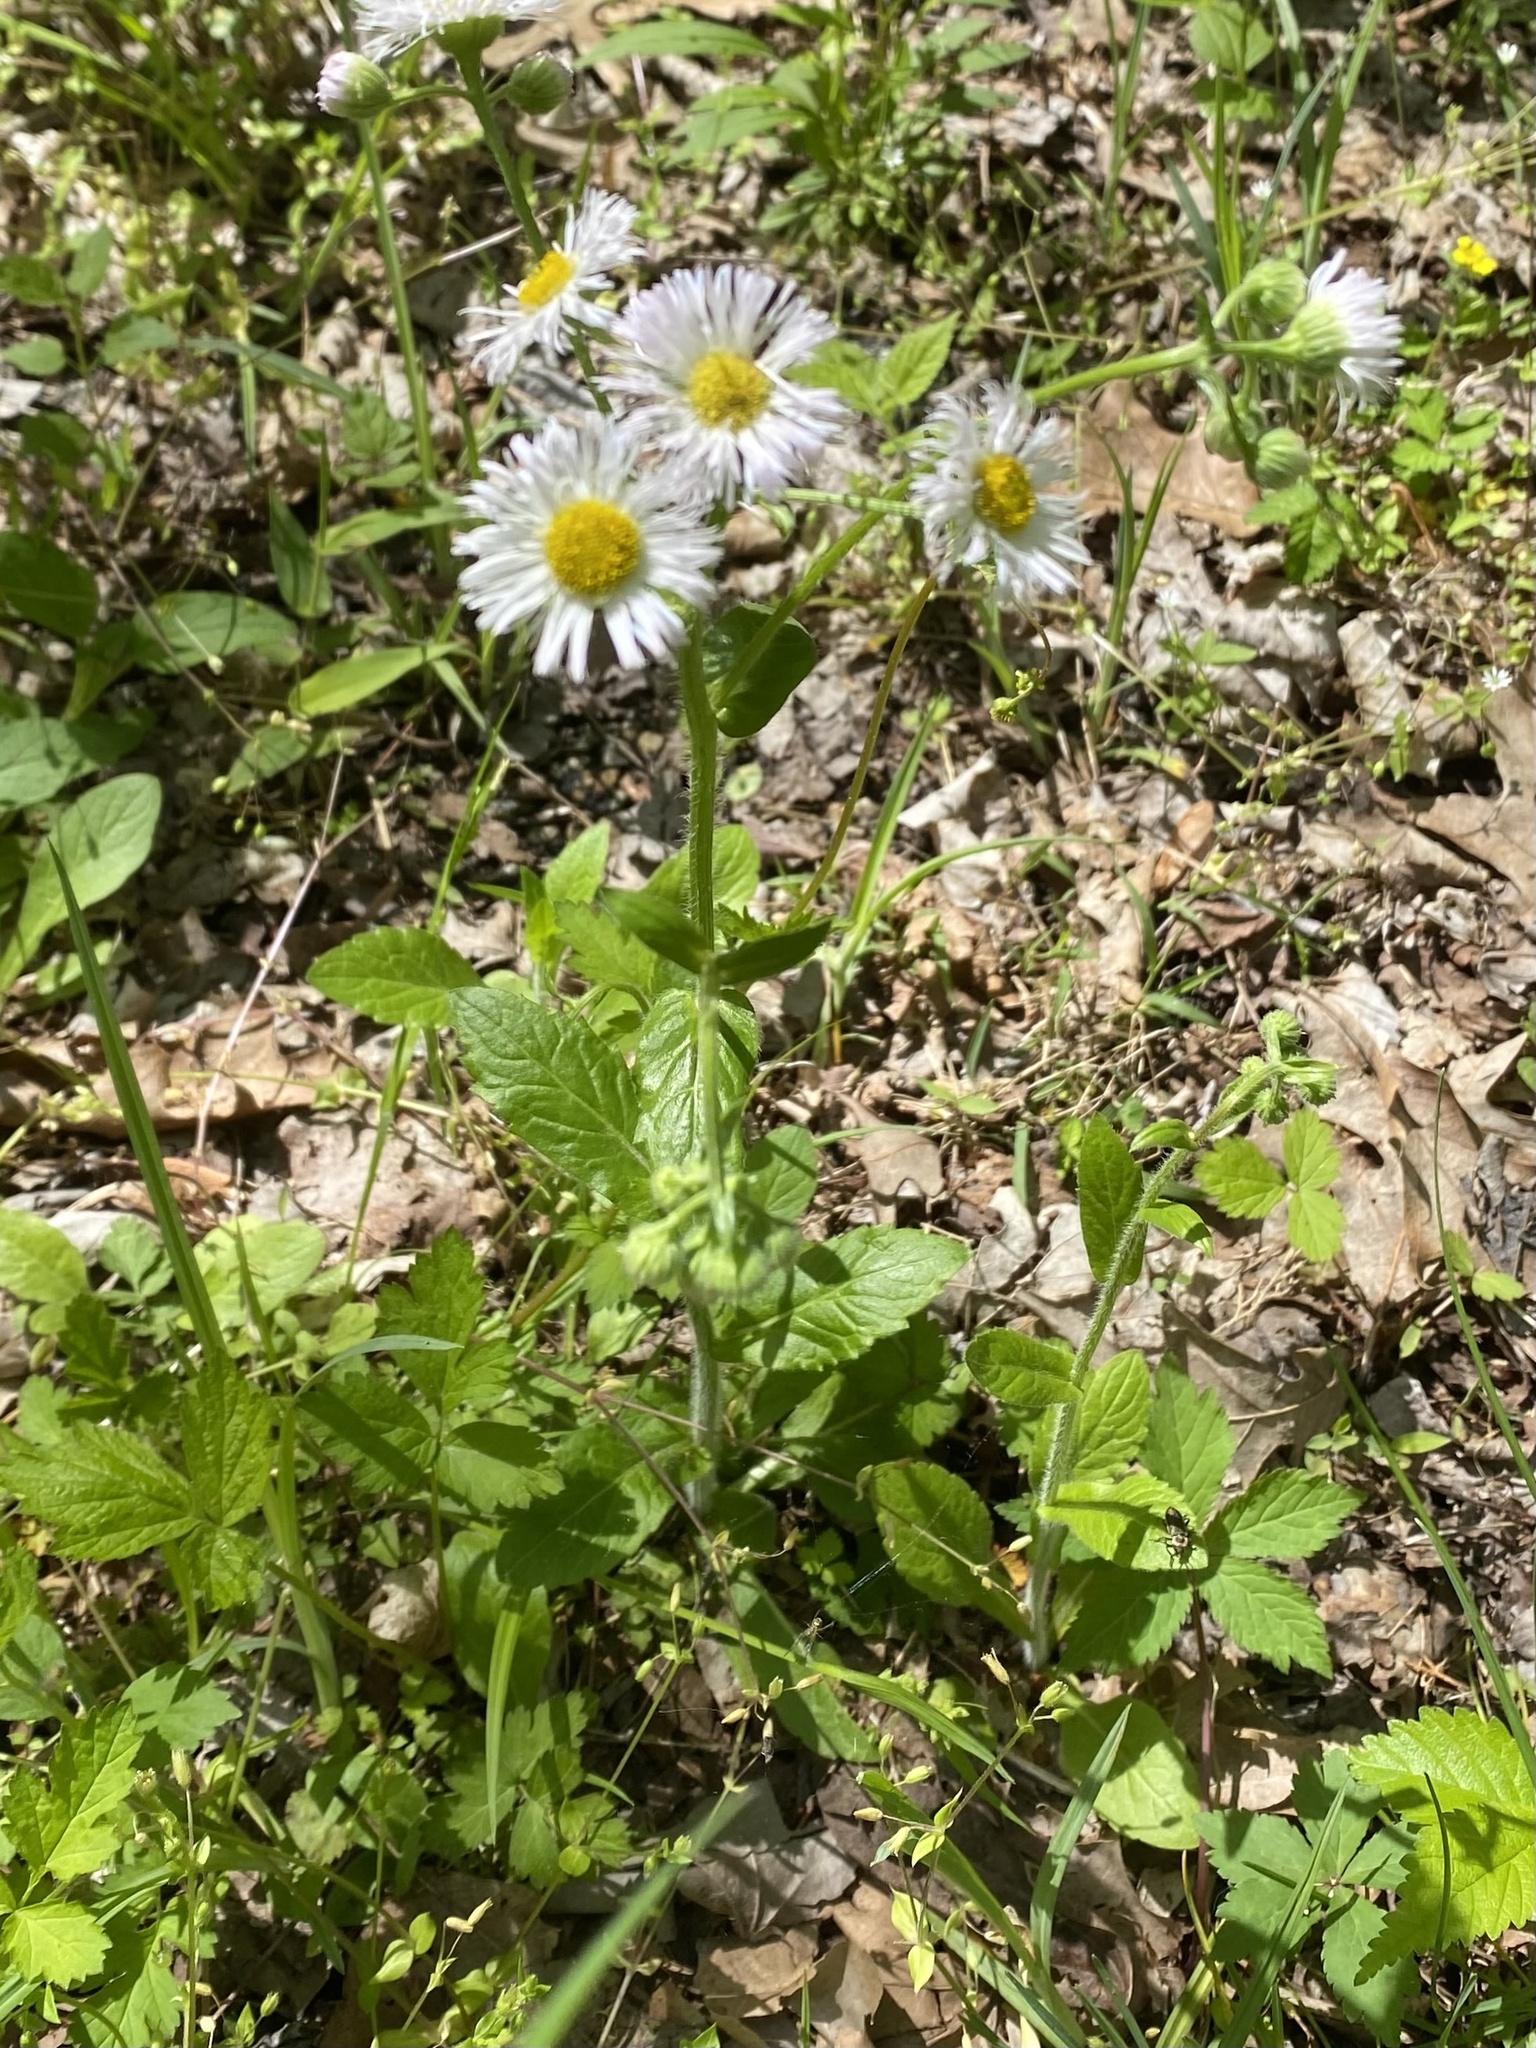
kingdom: Plantae
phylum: Tracheophyta
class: Magnoliopsida
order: Asterales
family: Asteraceae
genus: Erigeron
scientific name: Erigeron philadelphicus
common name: Robin's-plantain
